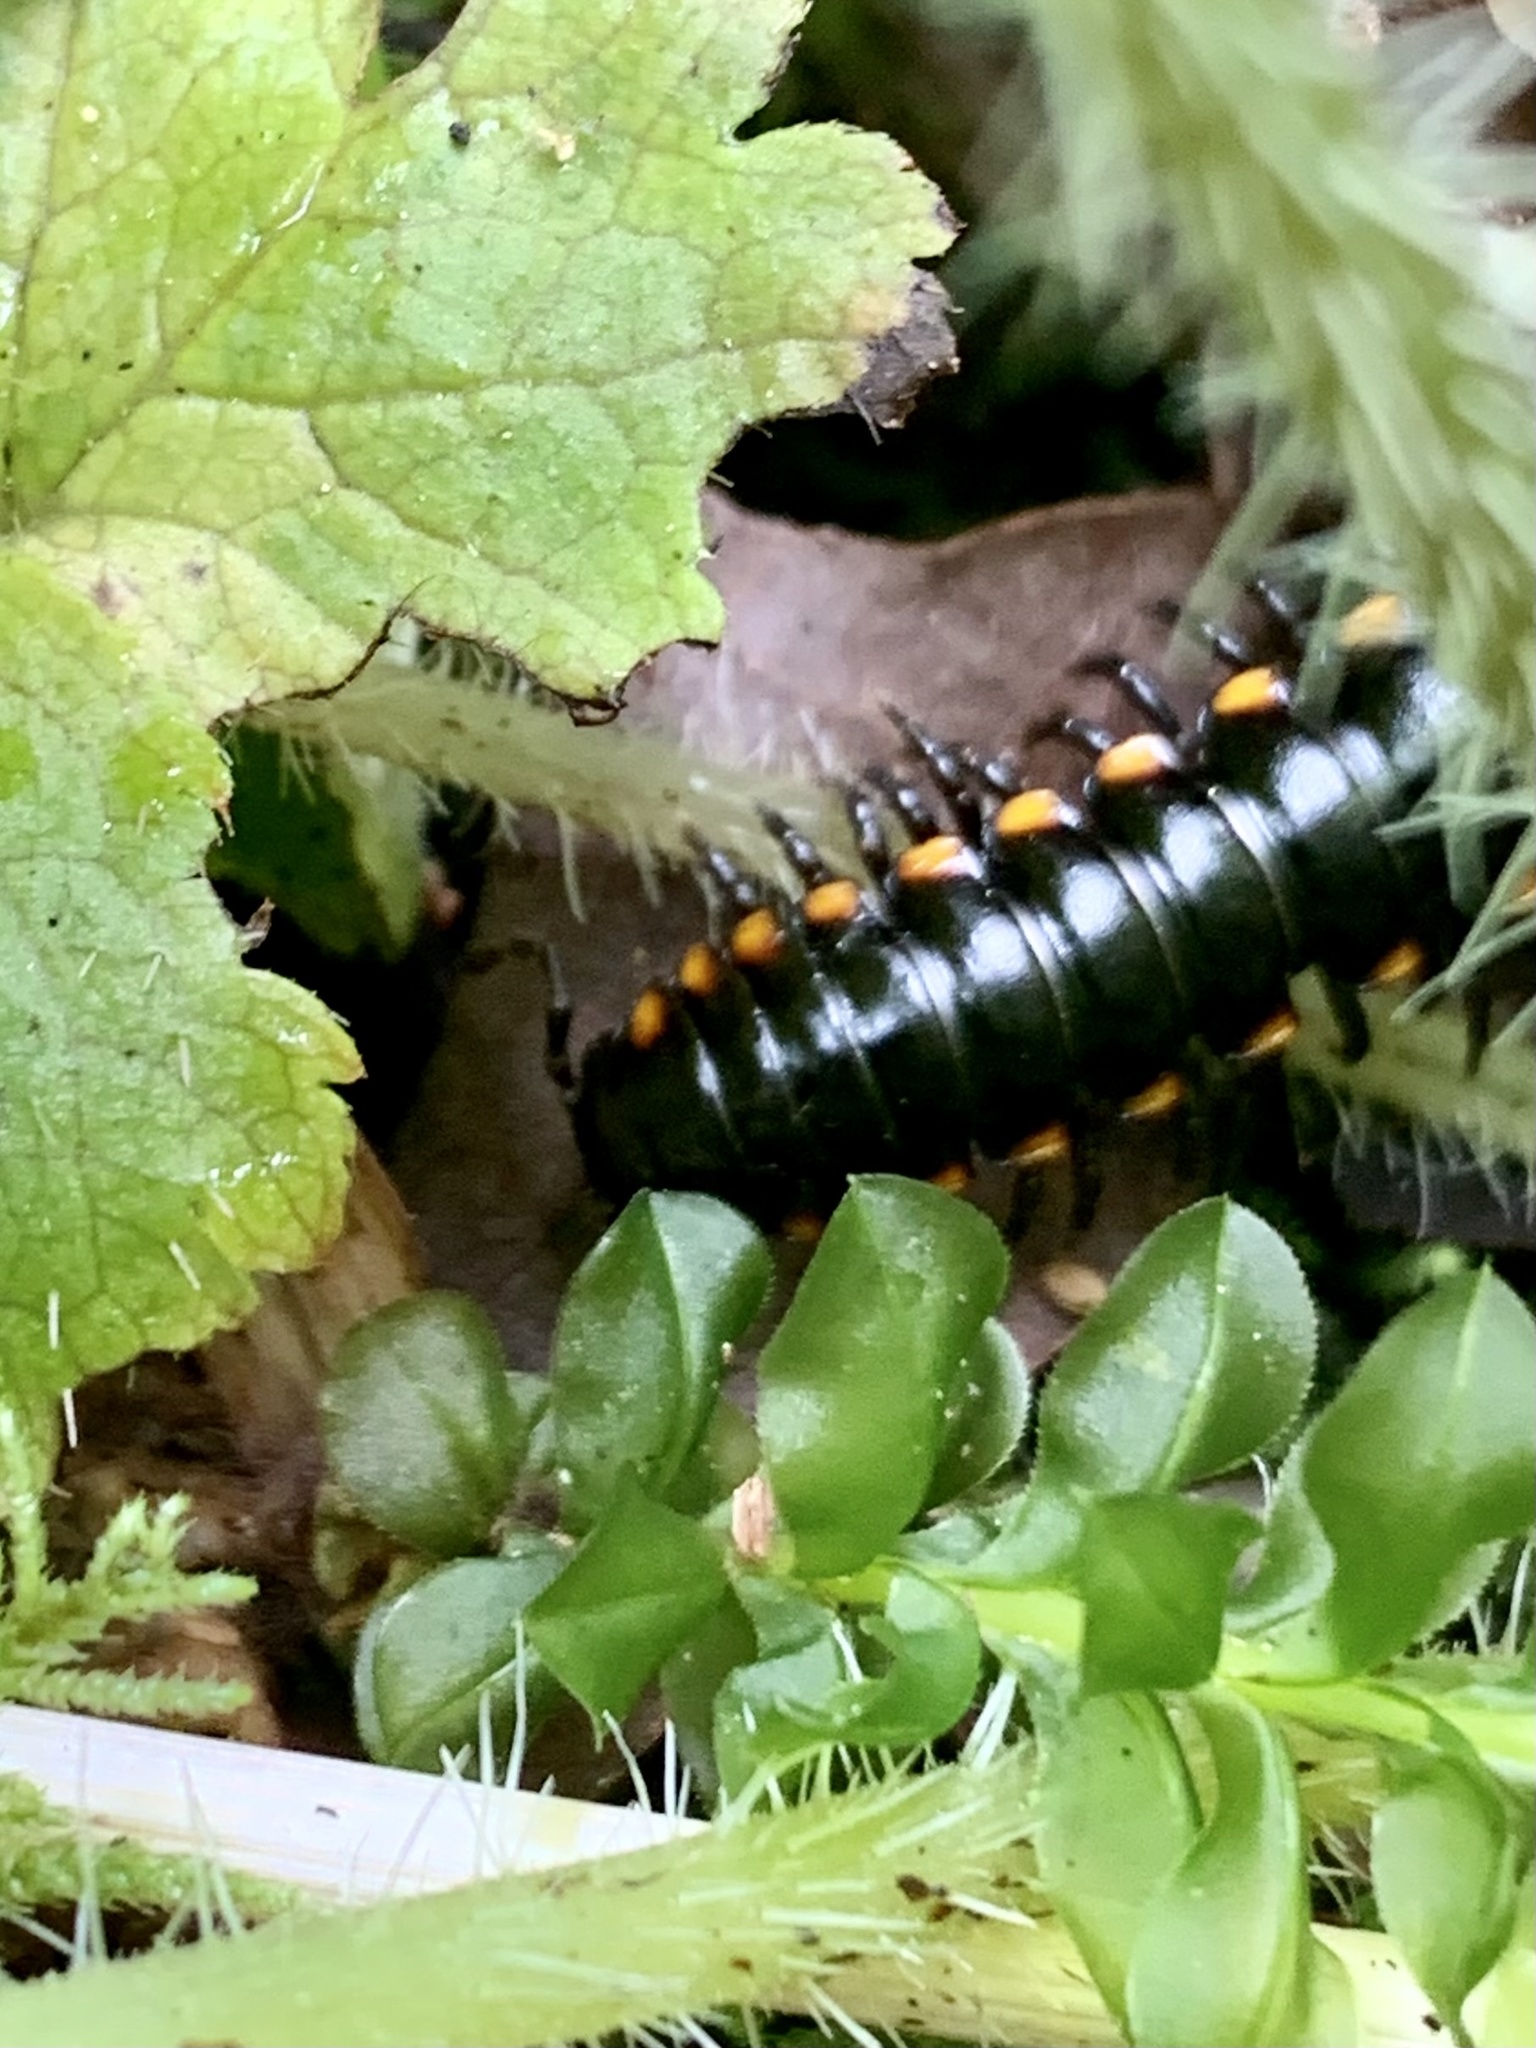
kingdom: Animalia
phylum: Arthropoda
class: Diplopoda
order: Polydesmida
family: Xystodesmidae
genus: Harpaphe
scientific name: Harpaphe haydeniana
